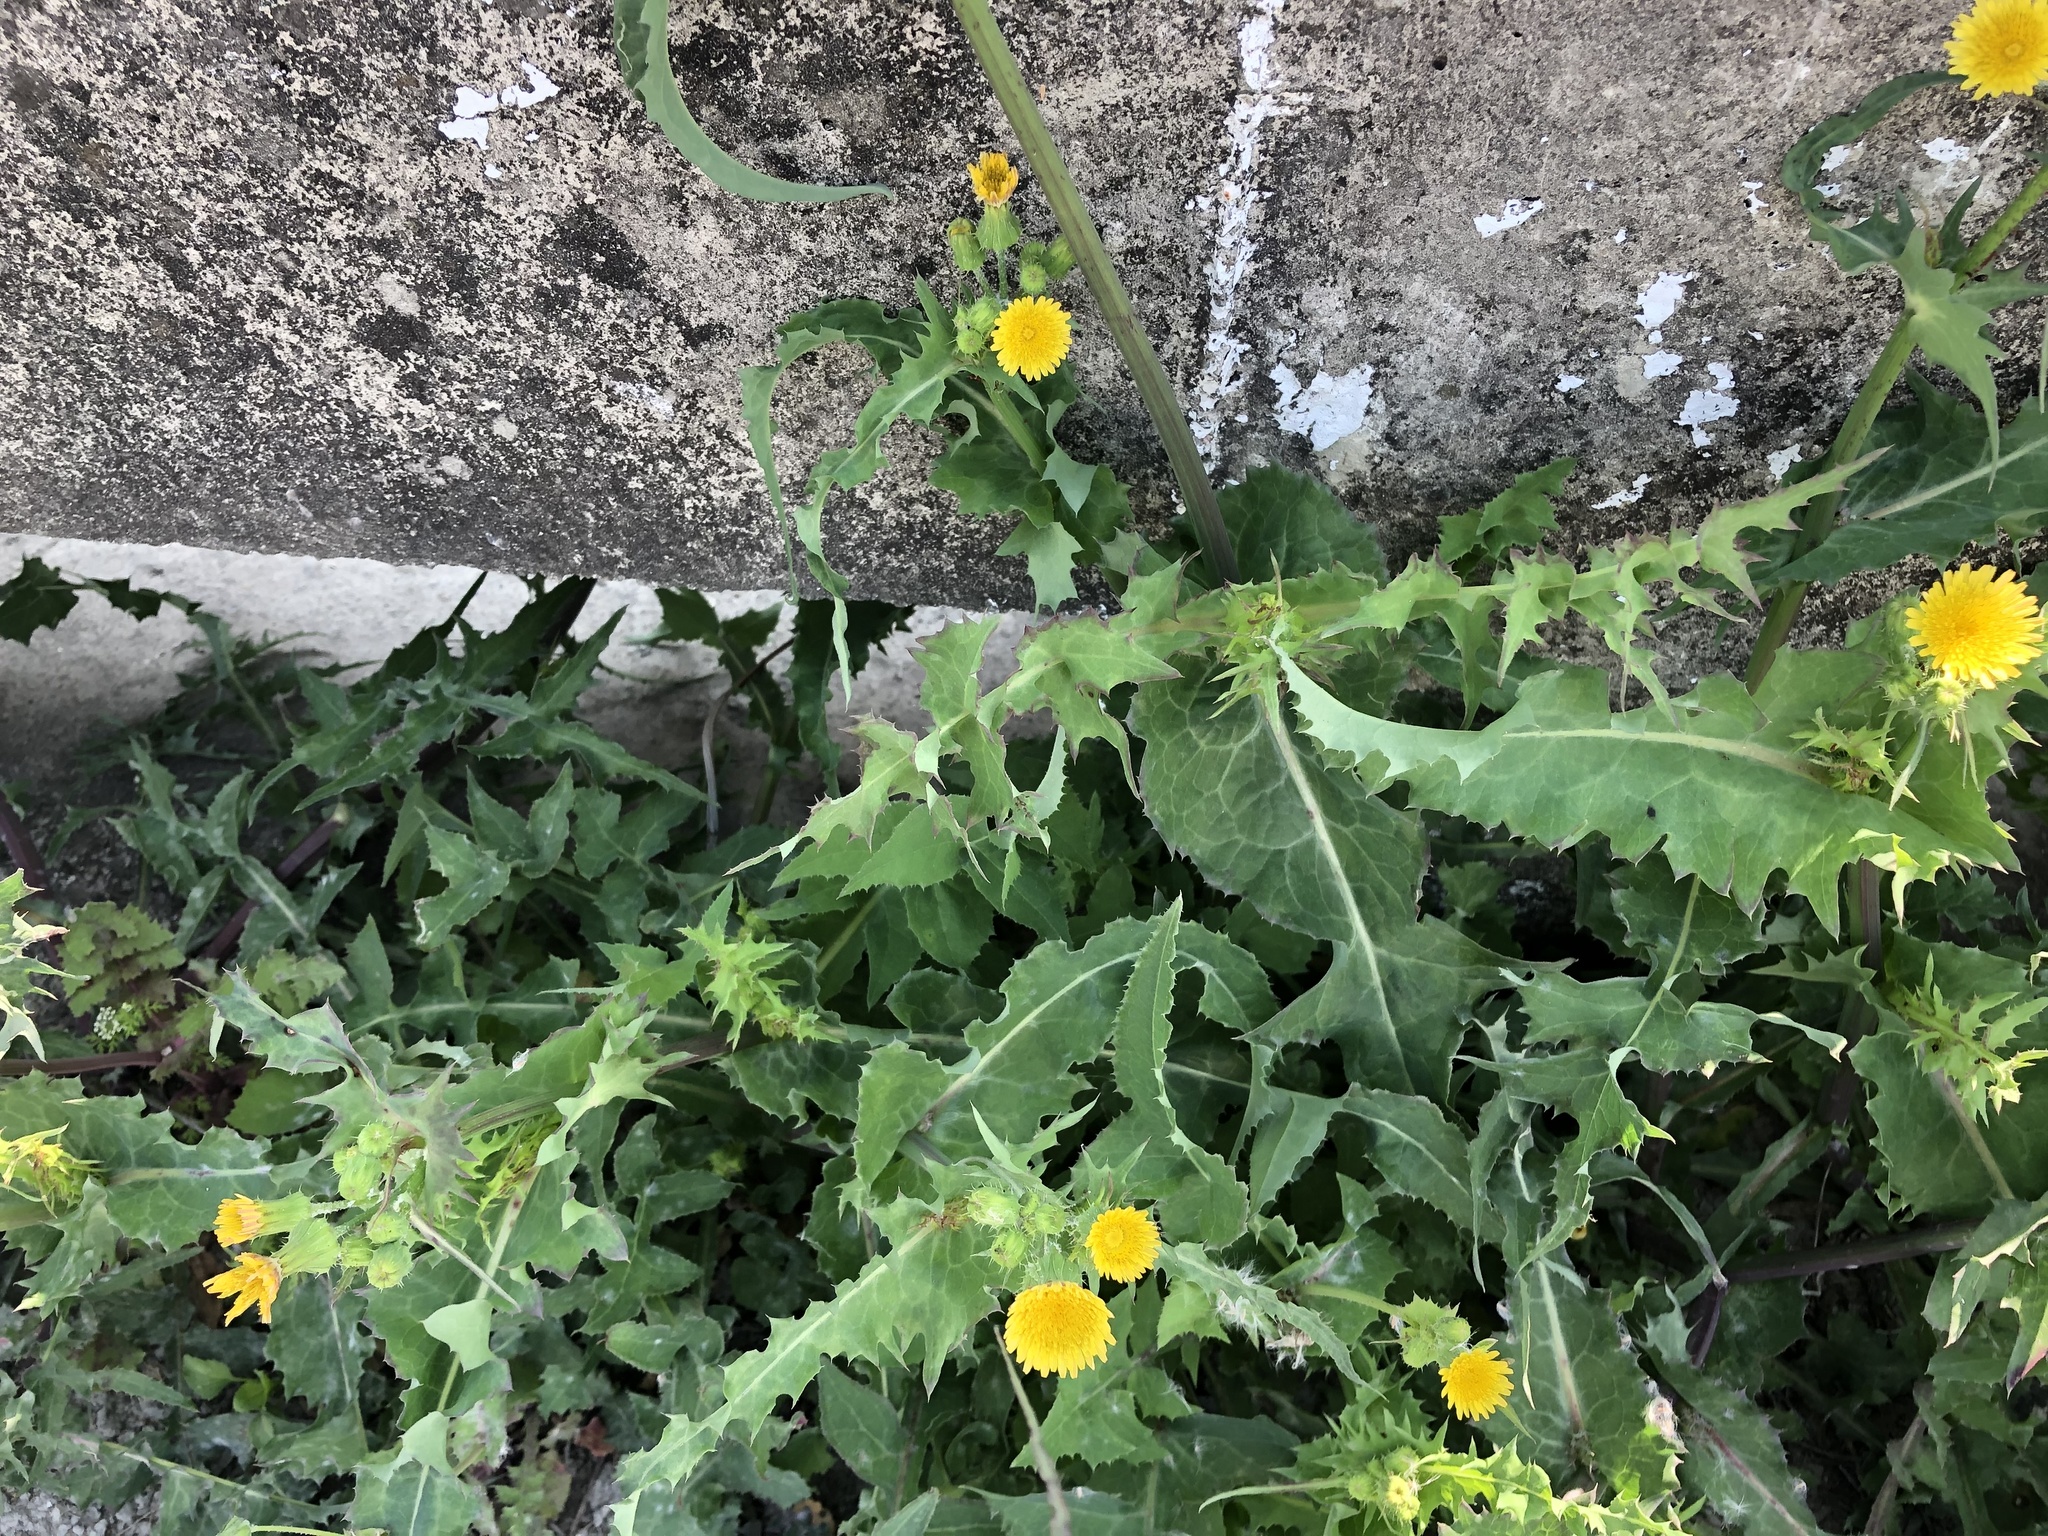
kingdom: Plantae
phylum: Tracheophyta
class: Magnoliopsida
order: Asterales
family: Asteraceae
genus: Sonchus
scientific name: Sonchus oleraceus
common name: Common sowthistle
